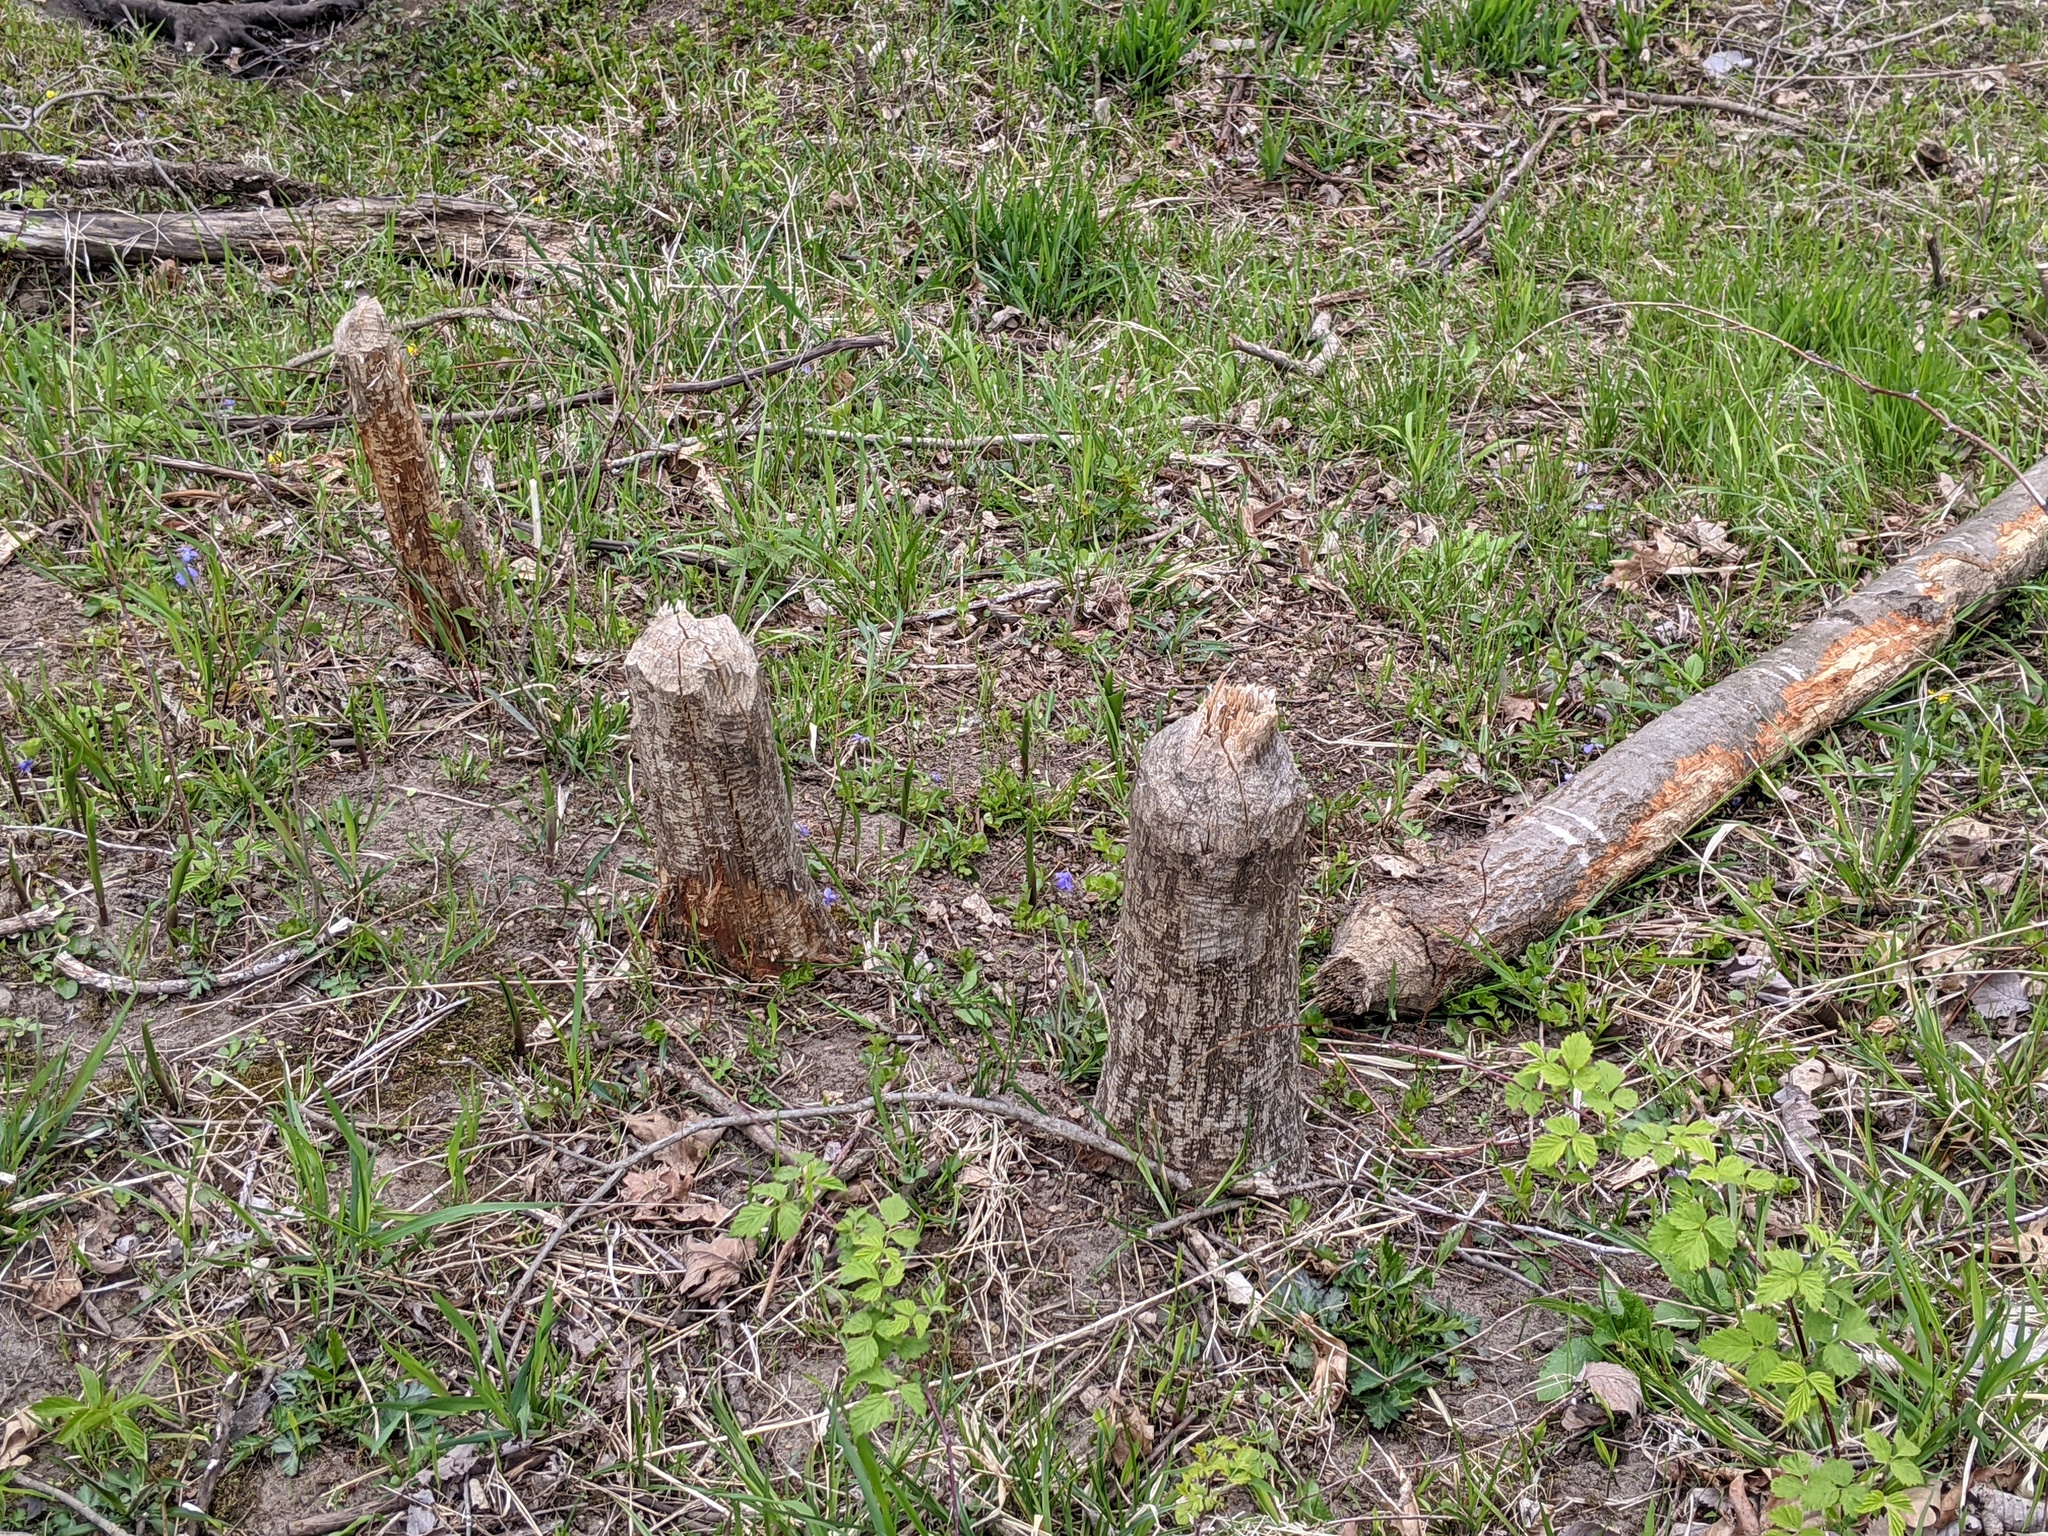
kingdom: Animalia
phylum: Chordata
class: Mammalia
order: Rodentia
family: Castoridae
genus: Castor
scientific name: Castor canadensis
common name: American beaver
